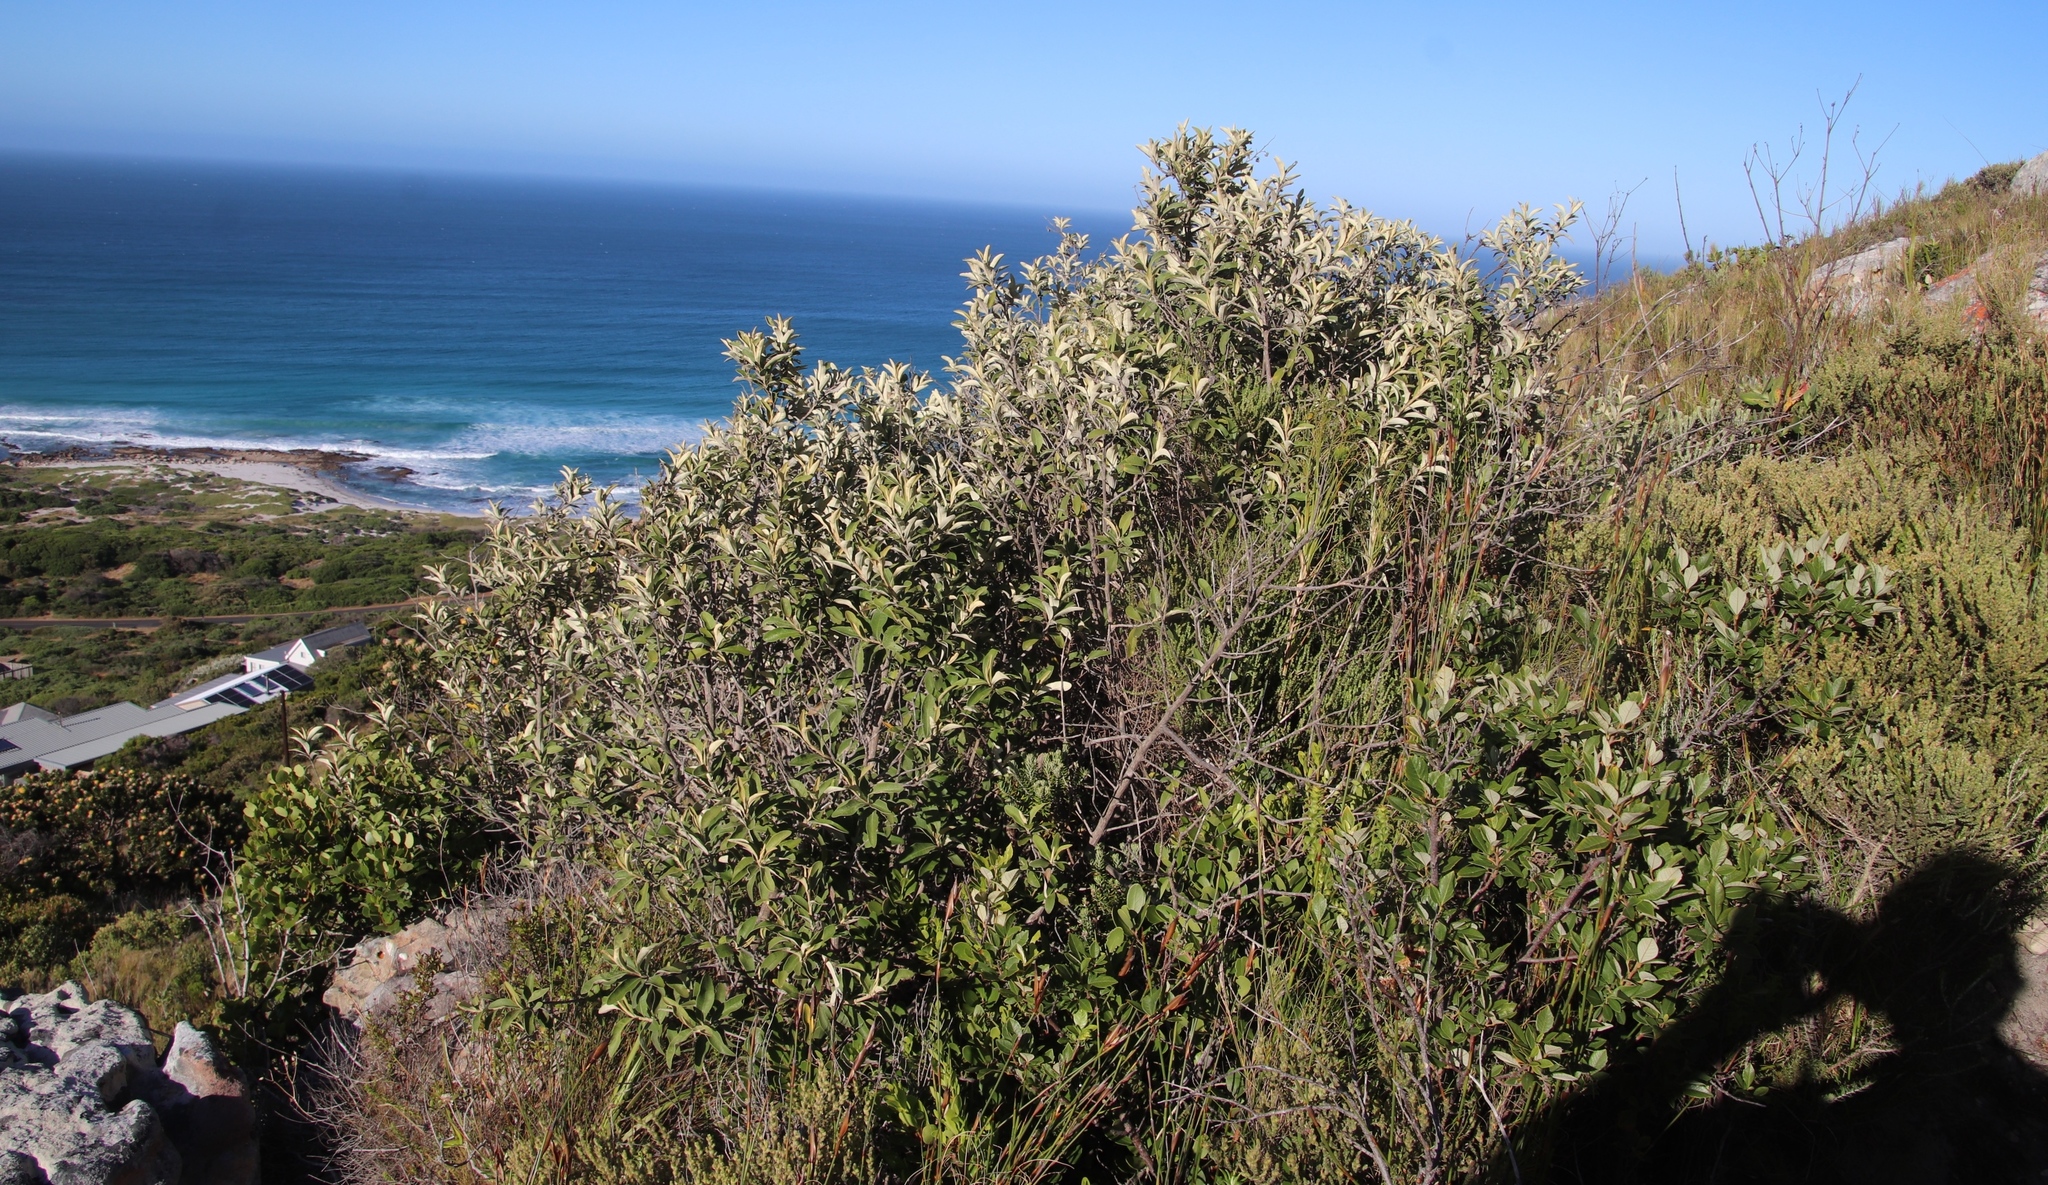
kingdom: Plantae
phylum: Tracheophyta
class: Magnoliopsida
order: Asterales
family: Asteraceae
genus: Tarchonanthus
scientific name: Tarchonanthus littoralis
